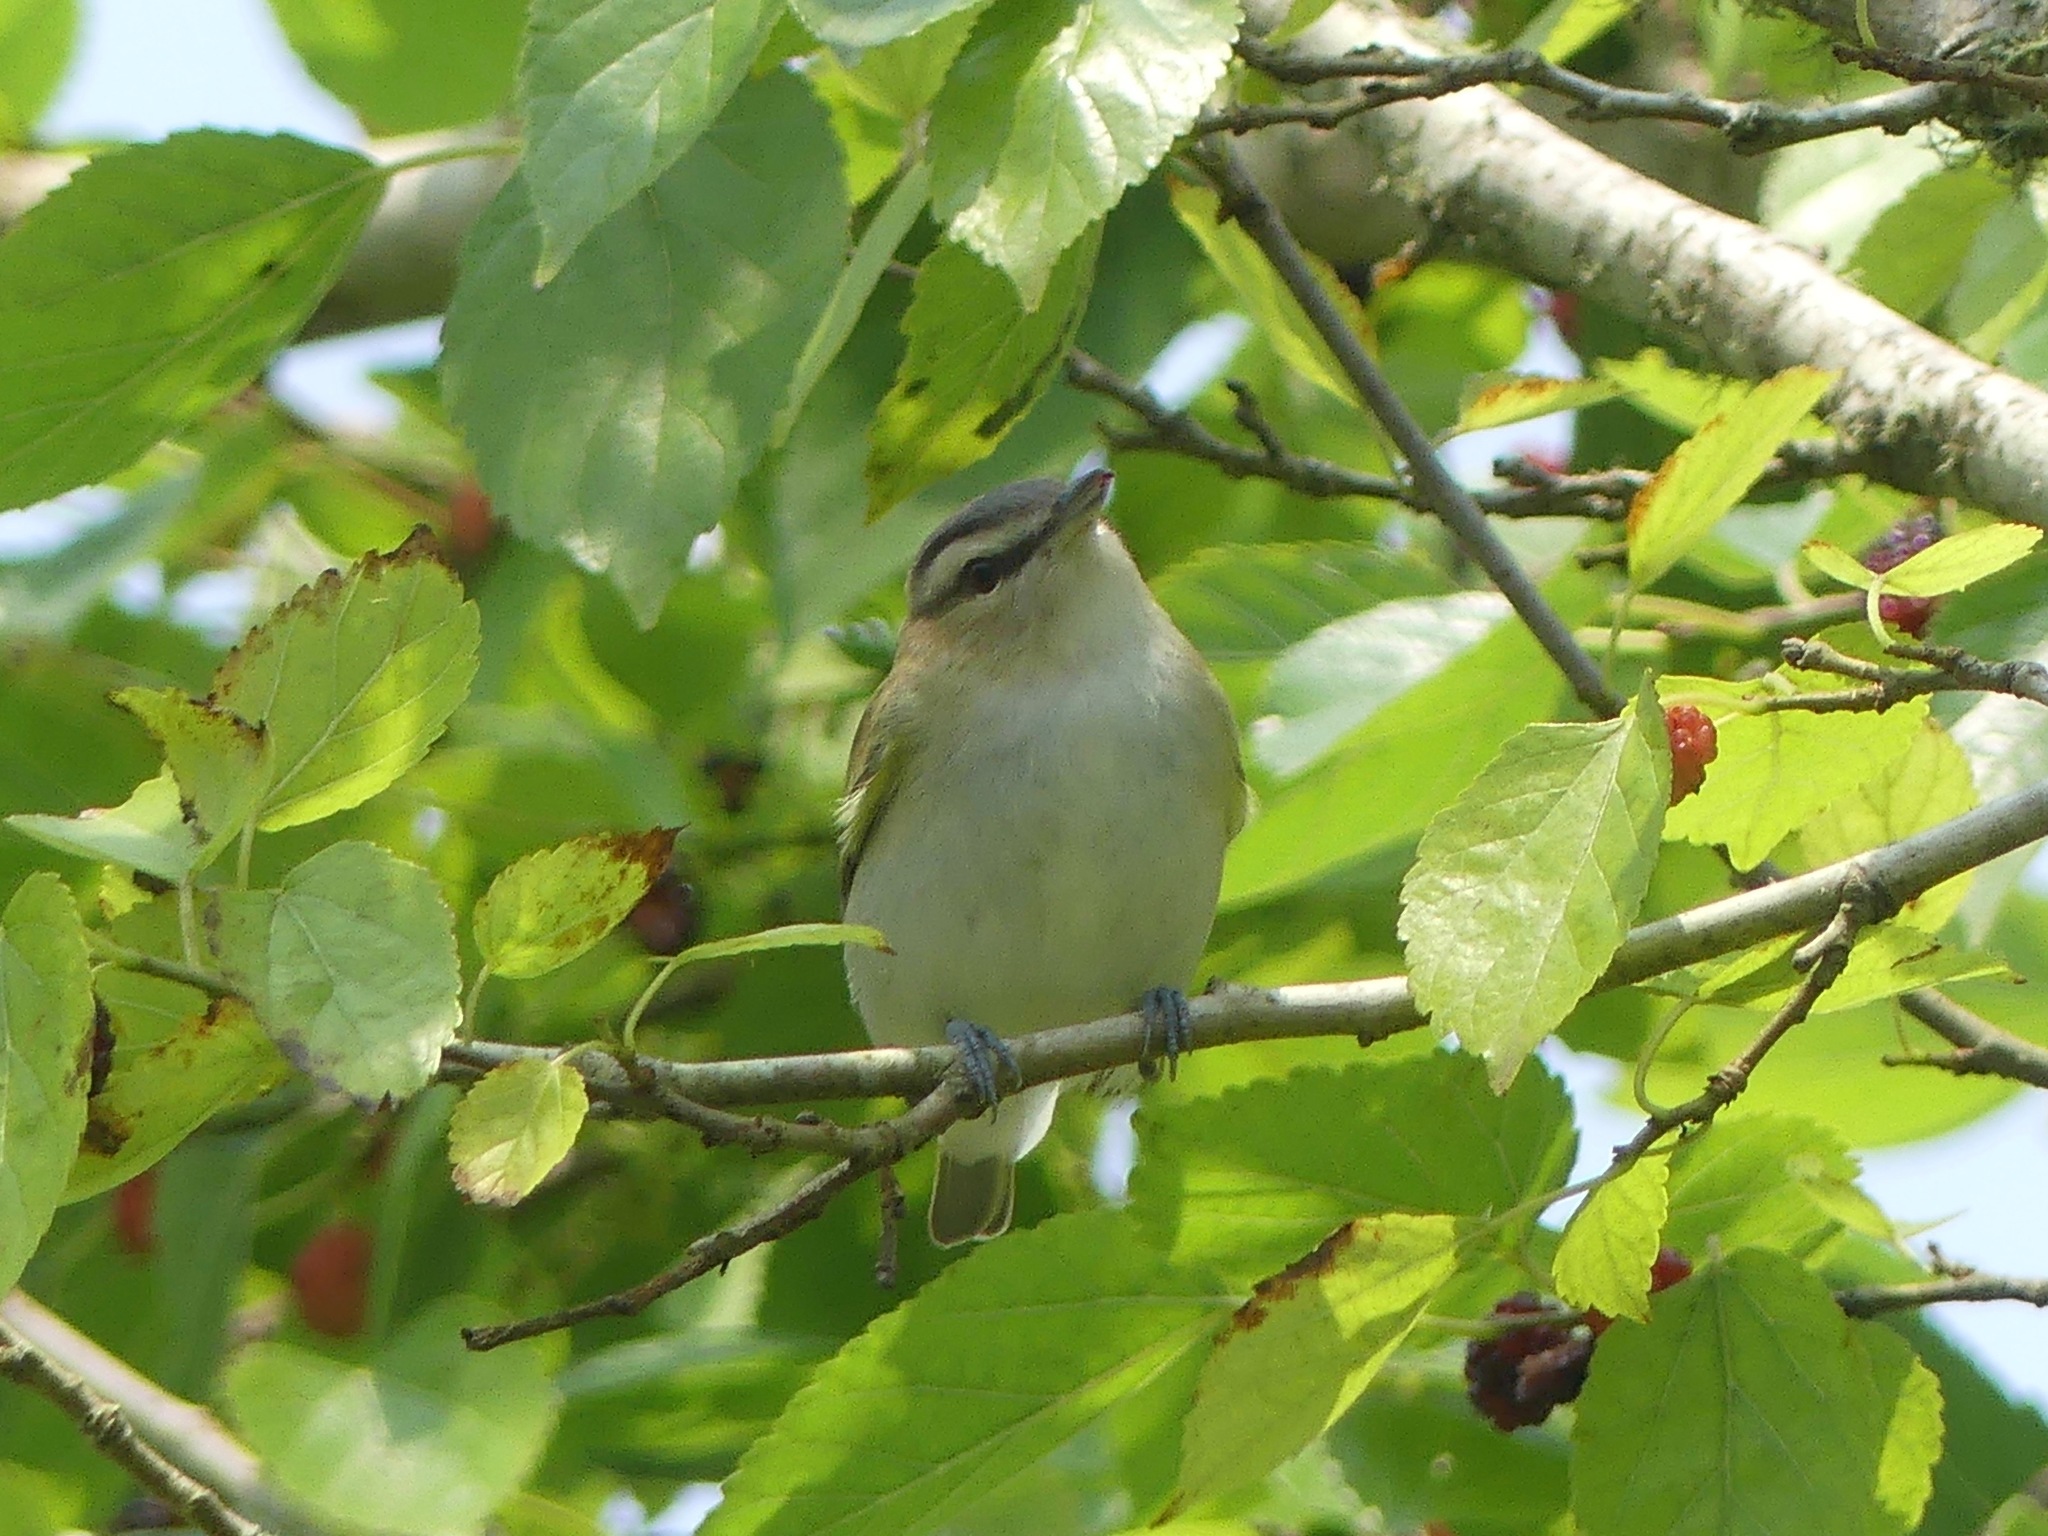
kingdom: Animalia
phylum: Chordata
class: Aves
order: Passeriformes
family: Vireonidae
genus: Vireo
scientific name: Vireo olivaceus
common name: Red-eyed vireo
